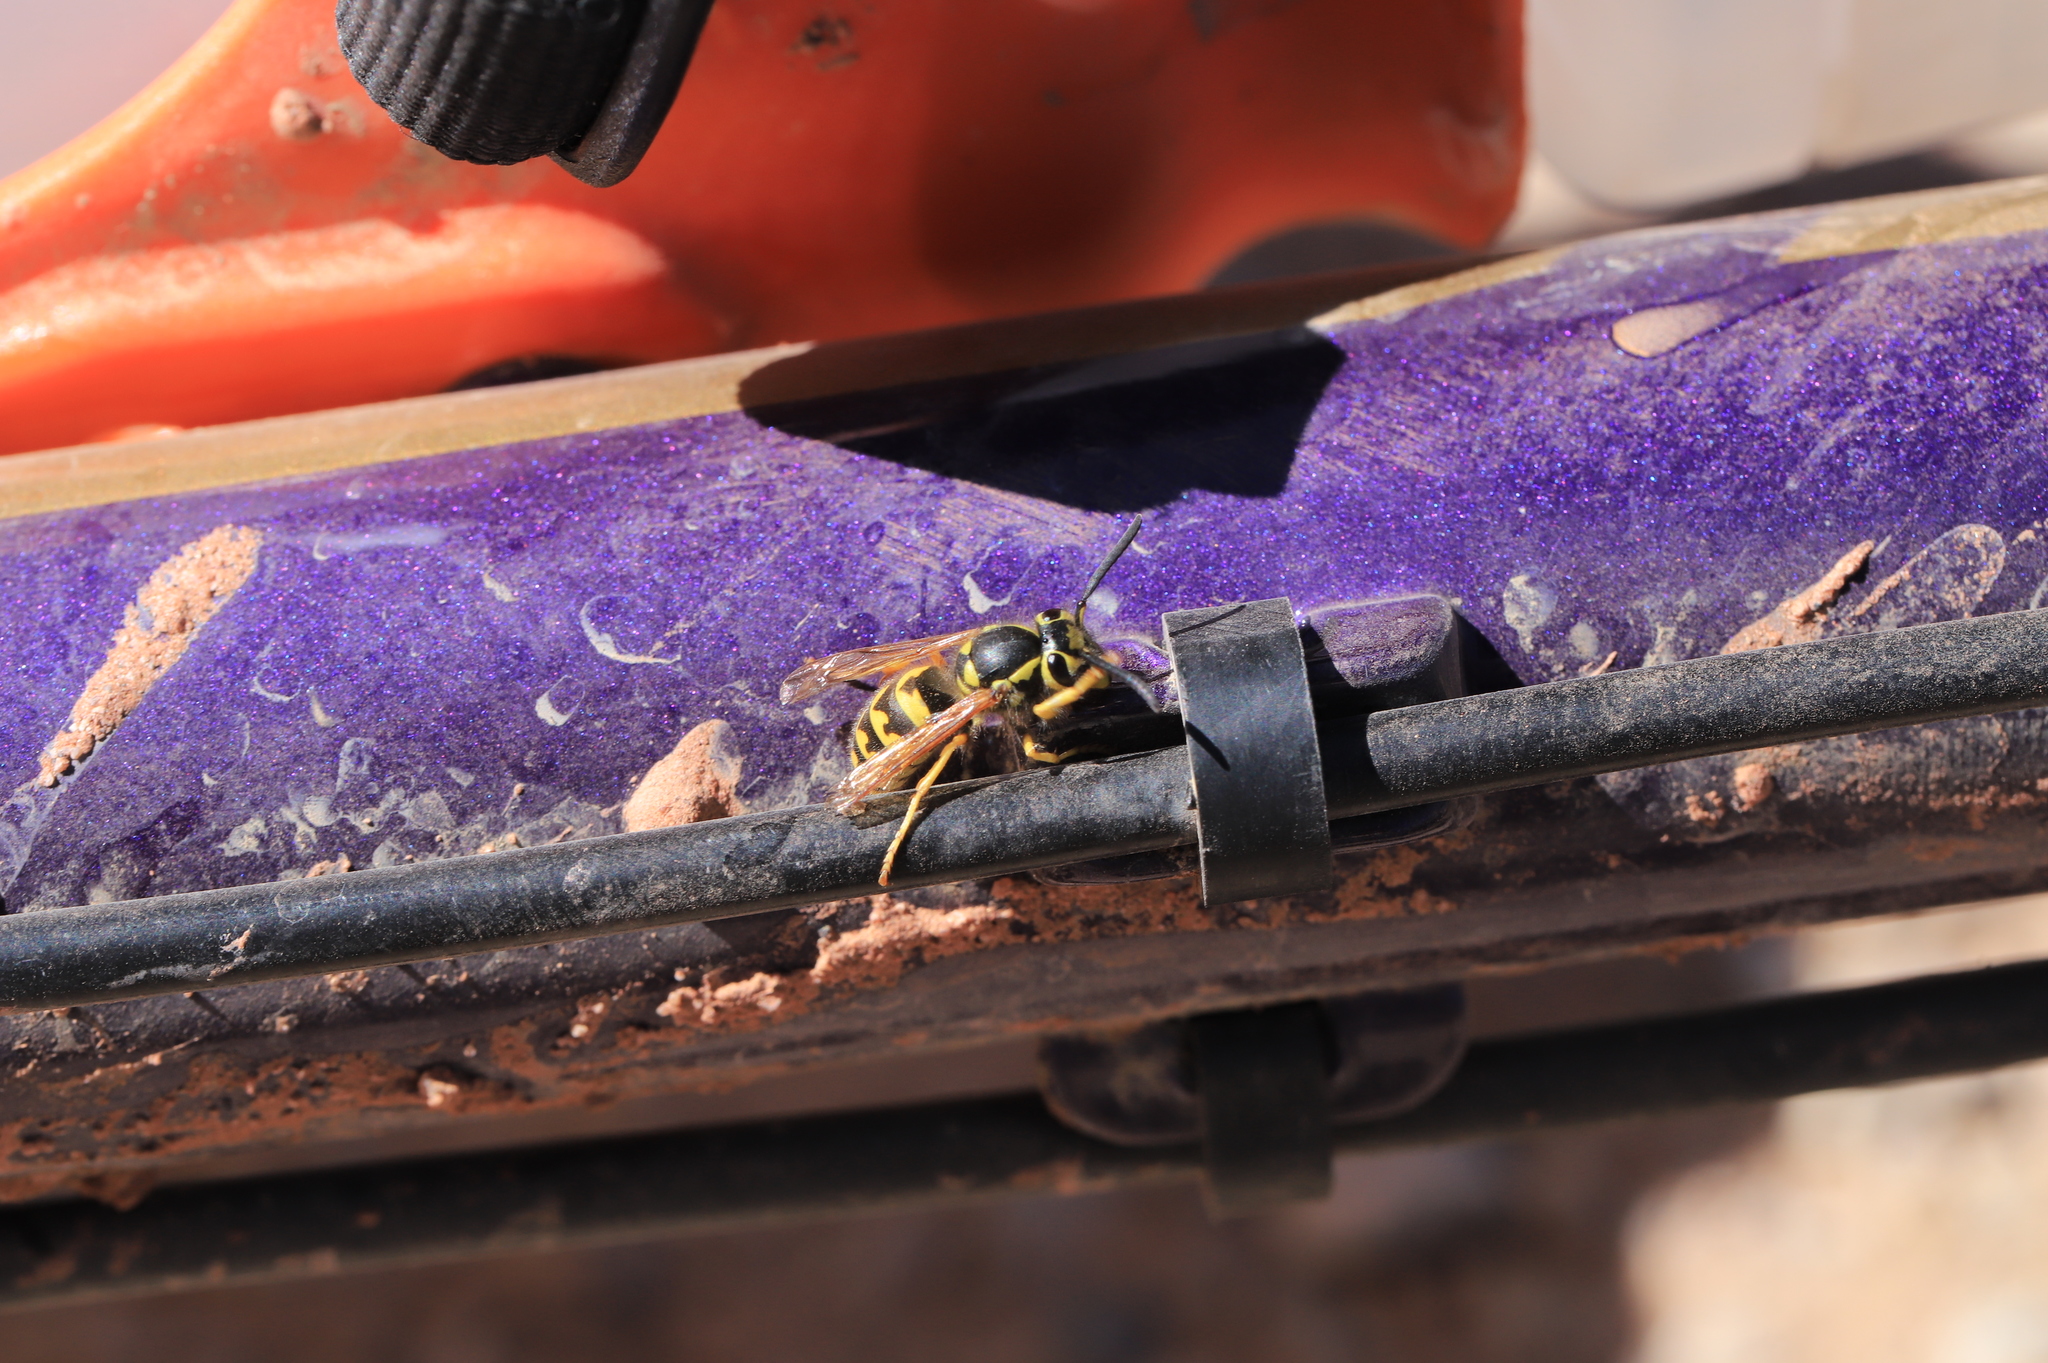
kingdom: Animalia
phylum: Arthropoda
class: Insecta
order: Hymenoptera
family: Vespidae
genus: Vespula
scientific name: Vespula pensylvanica
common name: Western yellowjacket
